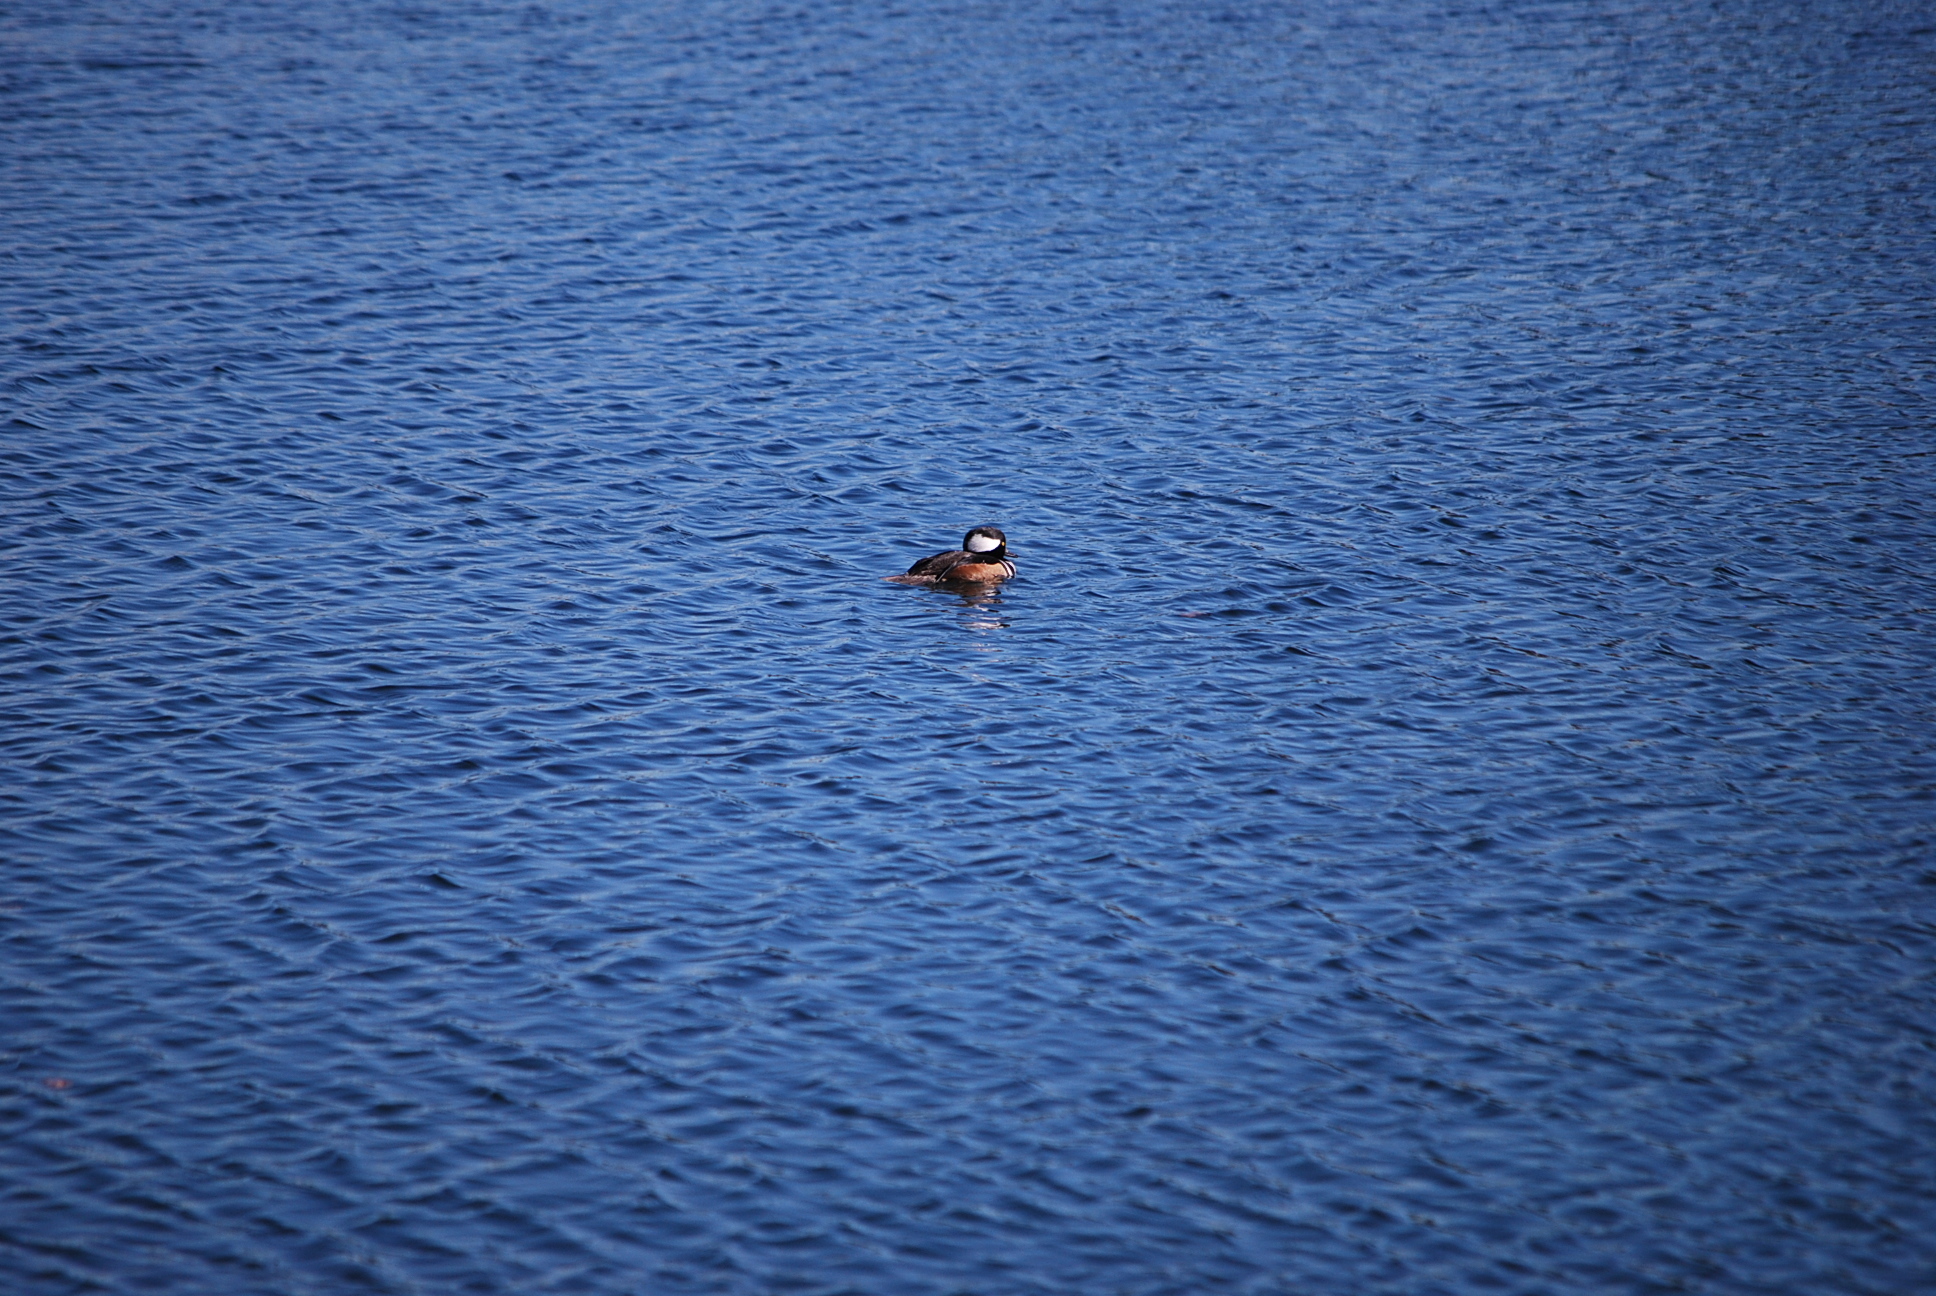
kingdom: Animalia
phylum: Chordata
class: Aves
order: Anseriformes
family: Anatidae
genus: Lophodytes
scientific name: Lophodytes cucullatus
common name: Hooded merganser
